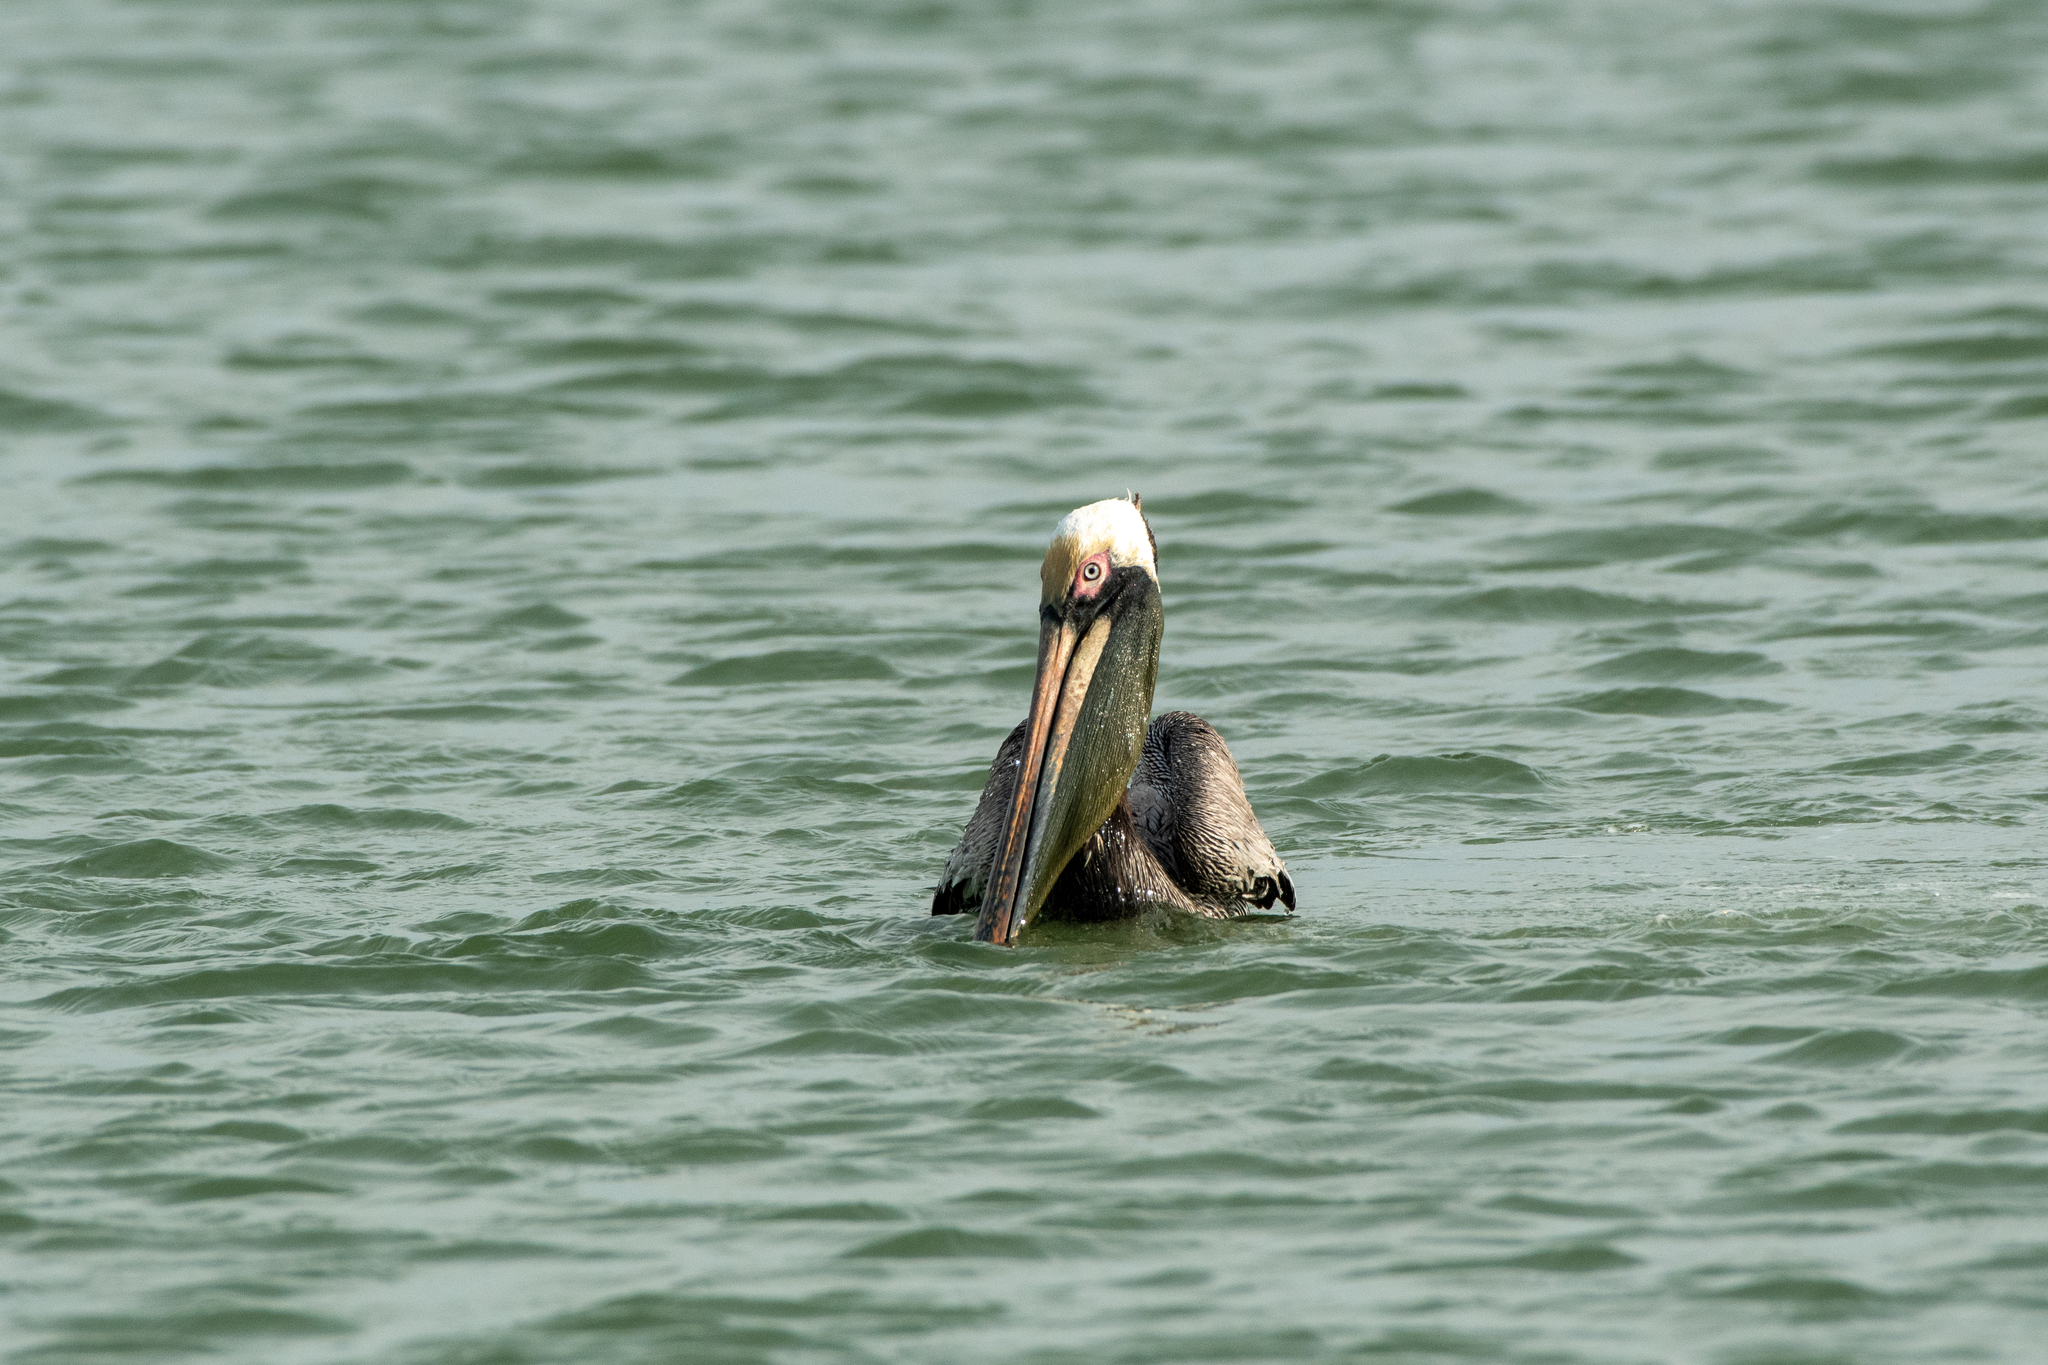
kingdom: Animalia
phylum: Chordata
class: Aves
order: Pelecaniformes
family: Pelecanidae
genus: Pelecanus
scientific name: Pelecanus occidentalis
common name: Brown pelican
